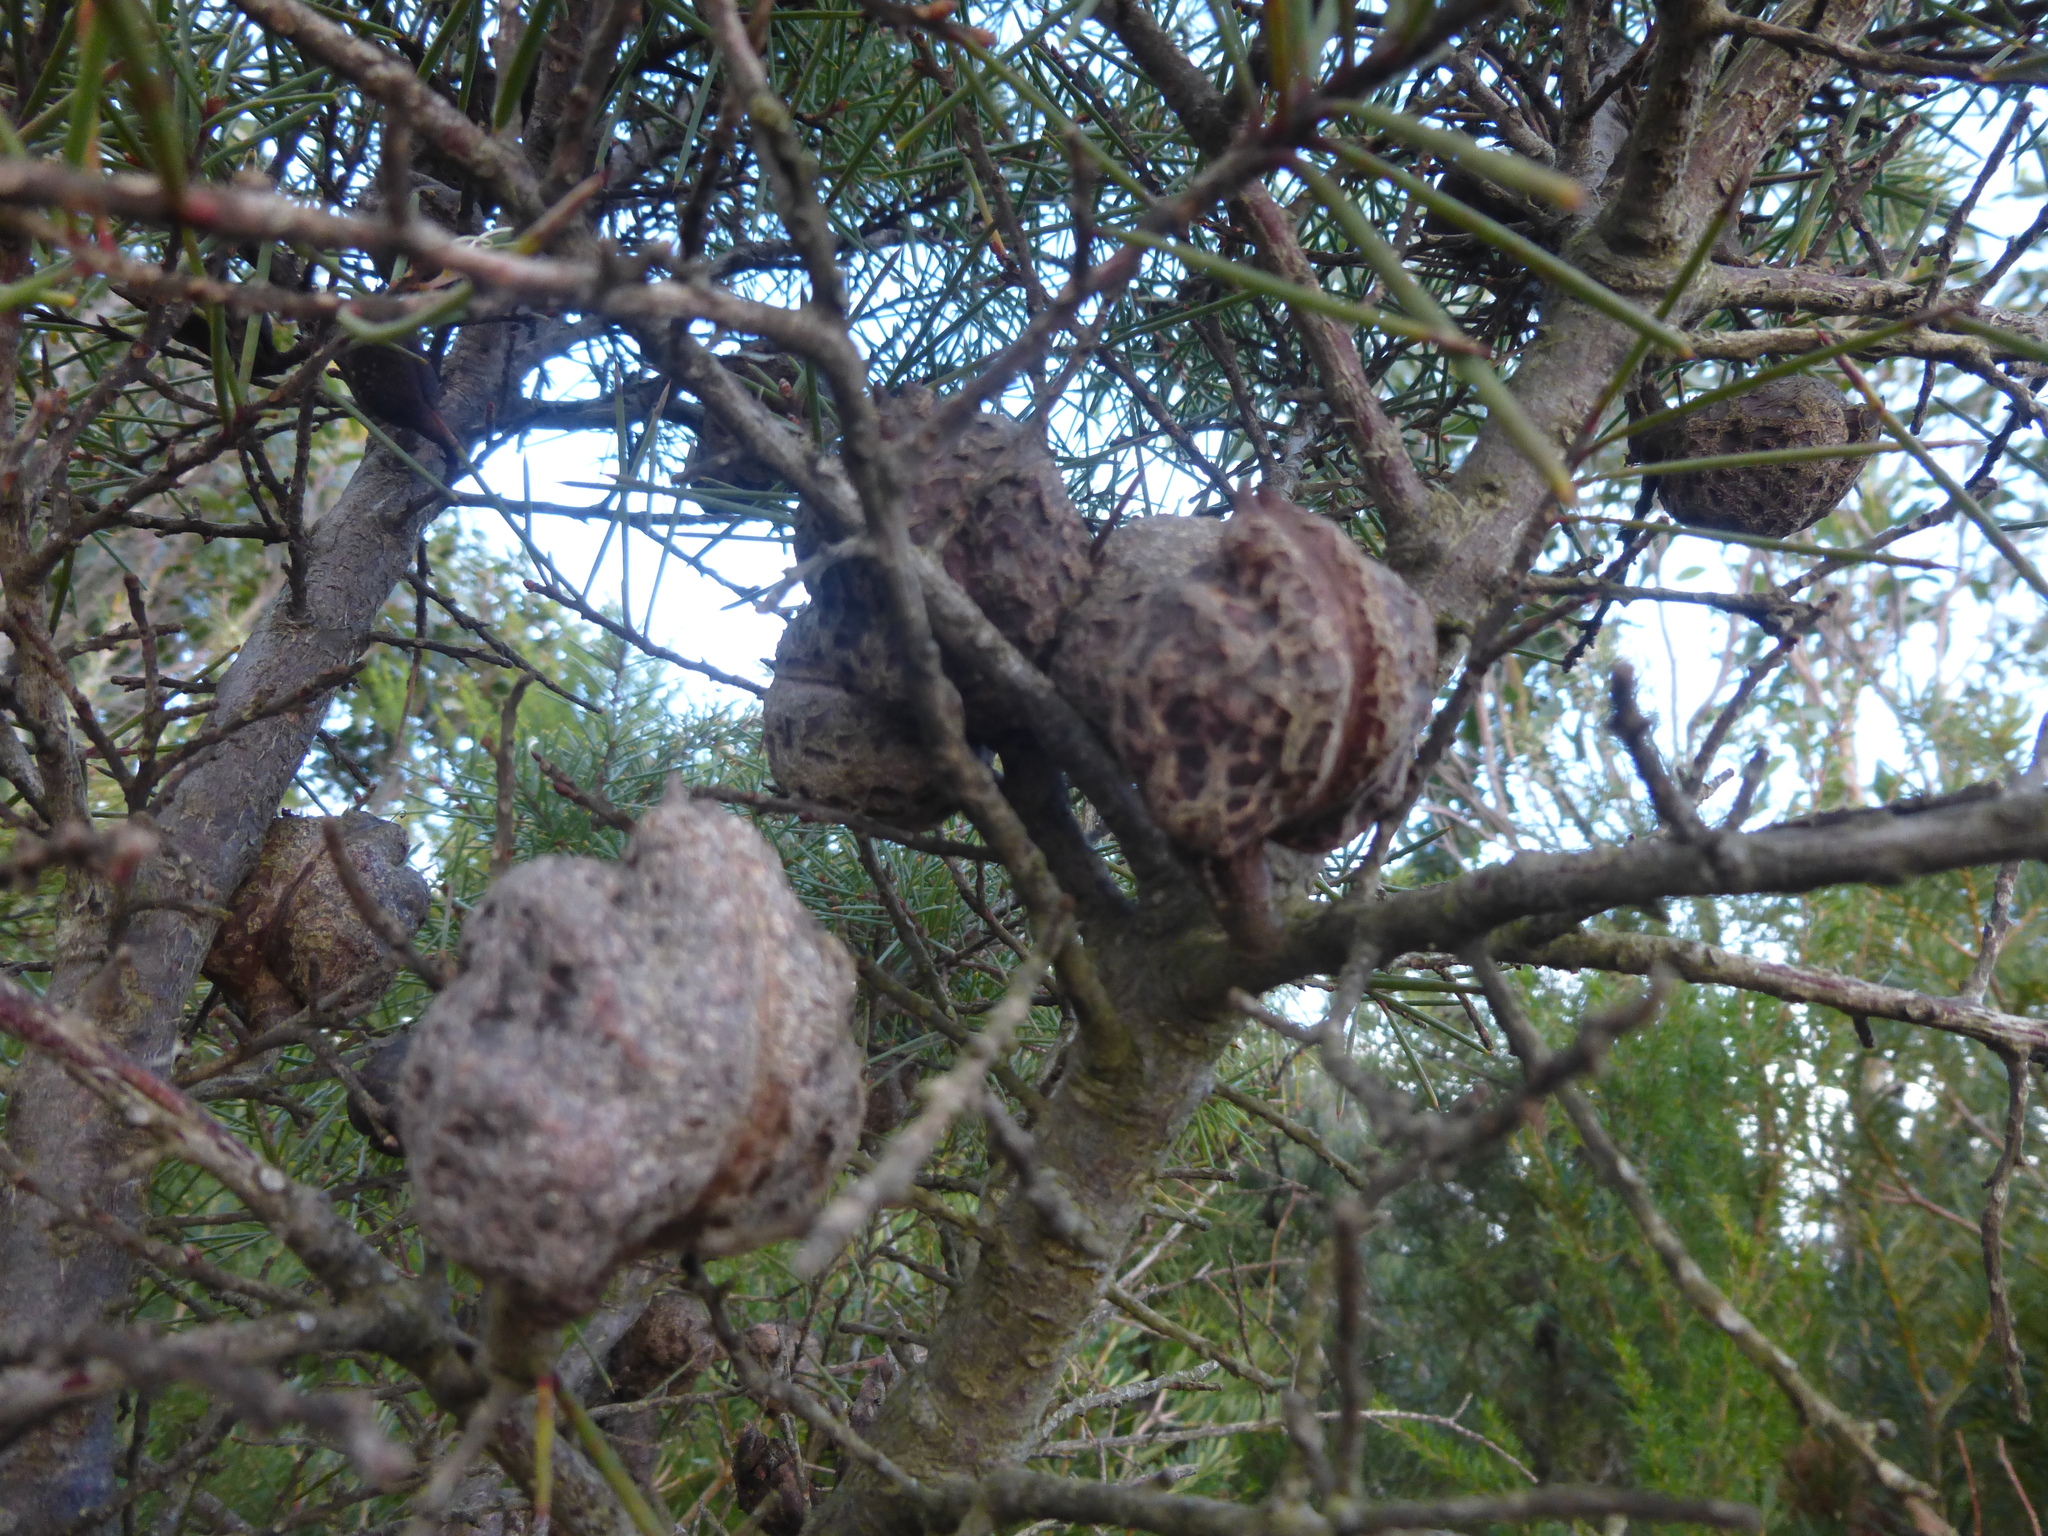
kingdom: Plantae
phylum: Tracheophyta
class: Magnoliopsida
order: Proteales
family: Proteaceae
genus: Hakea
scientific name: Hakea decurrens
